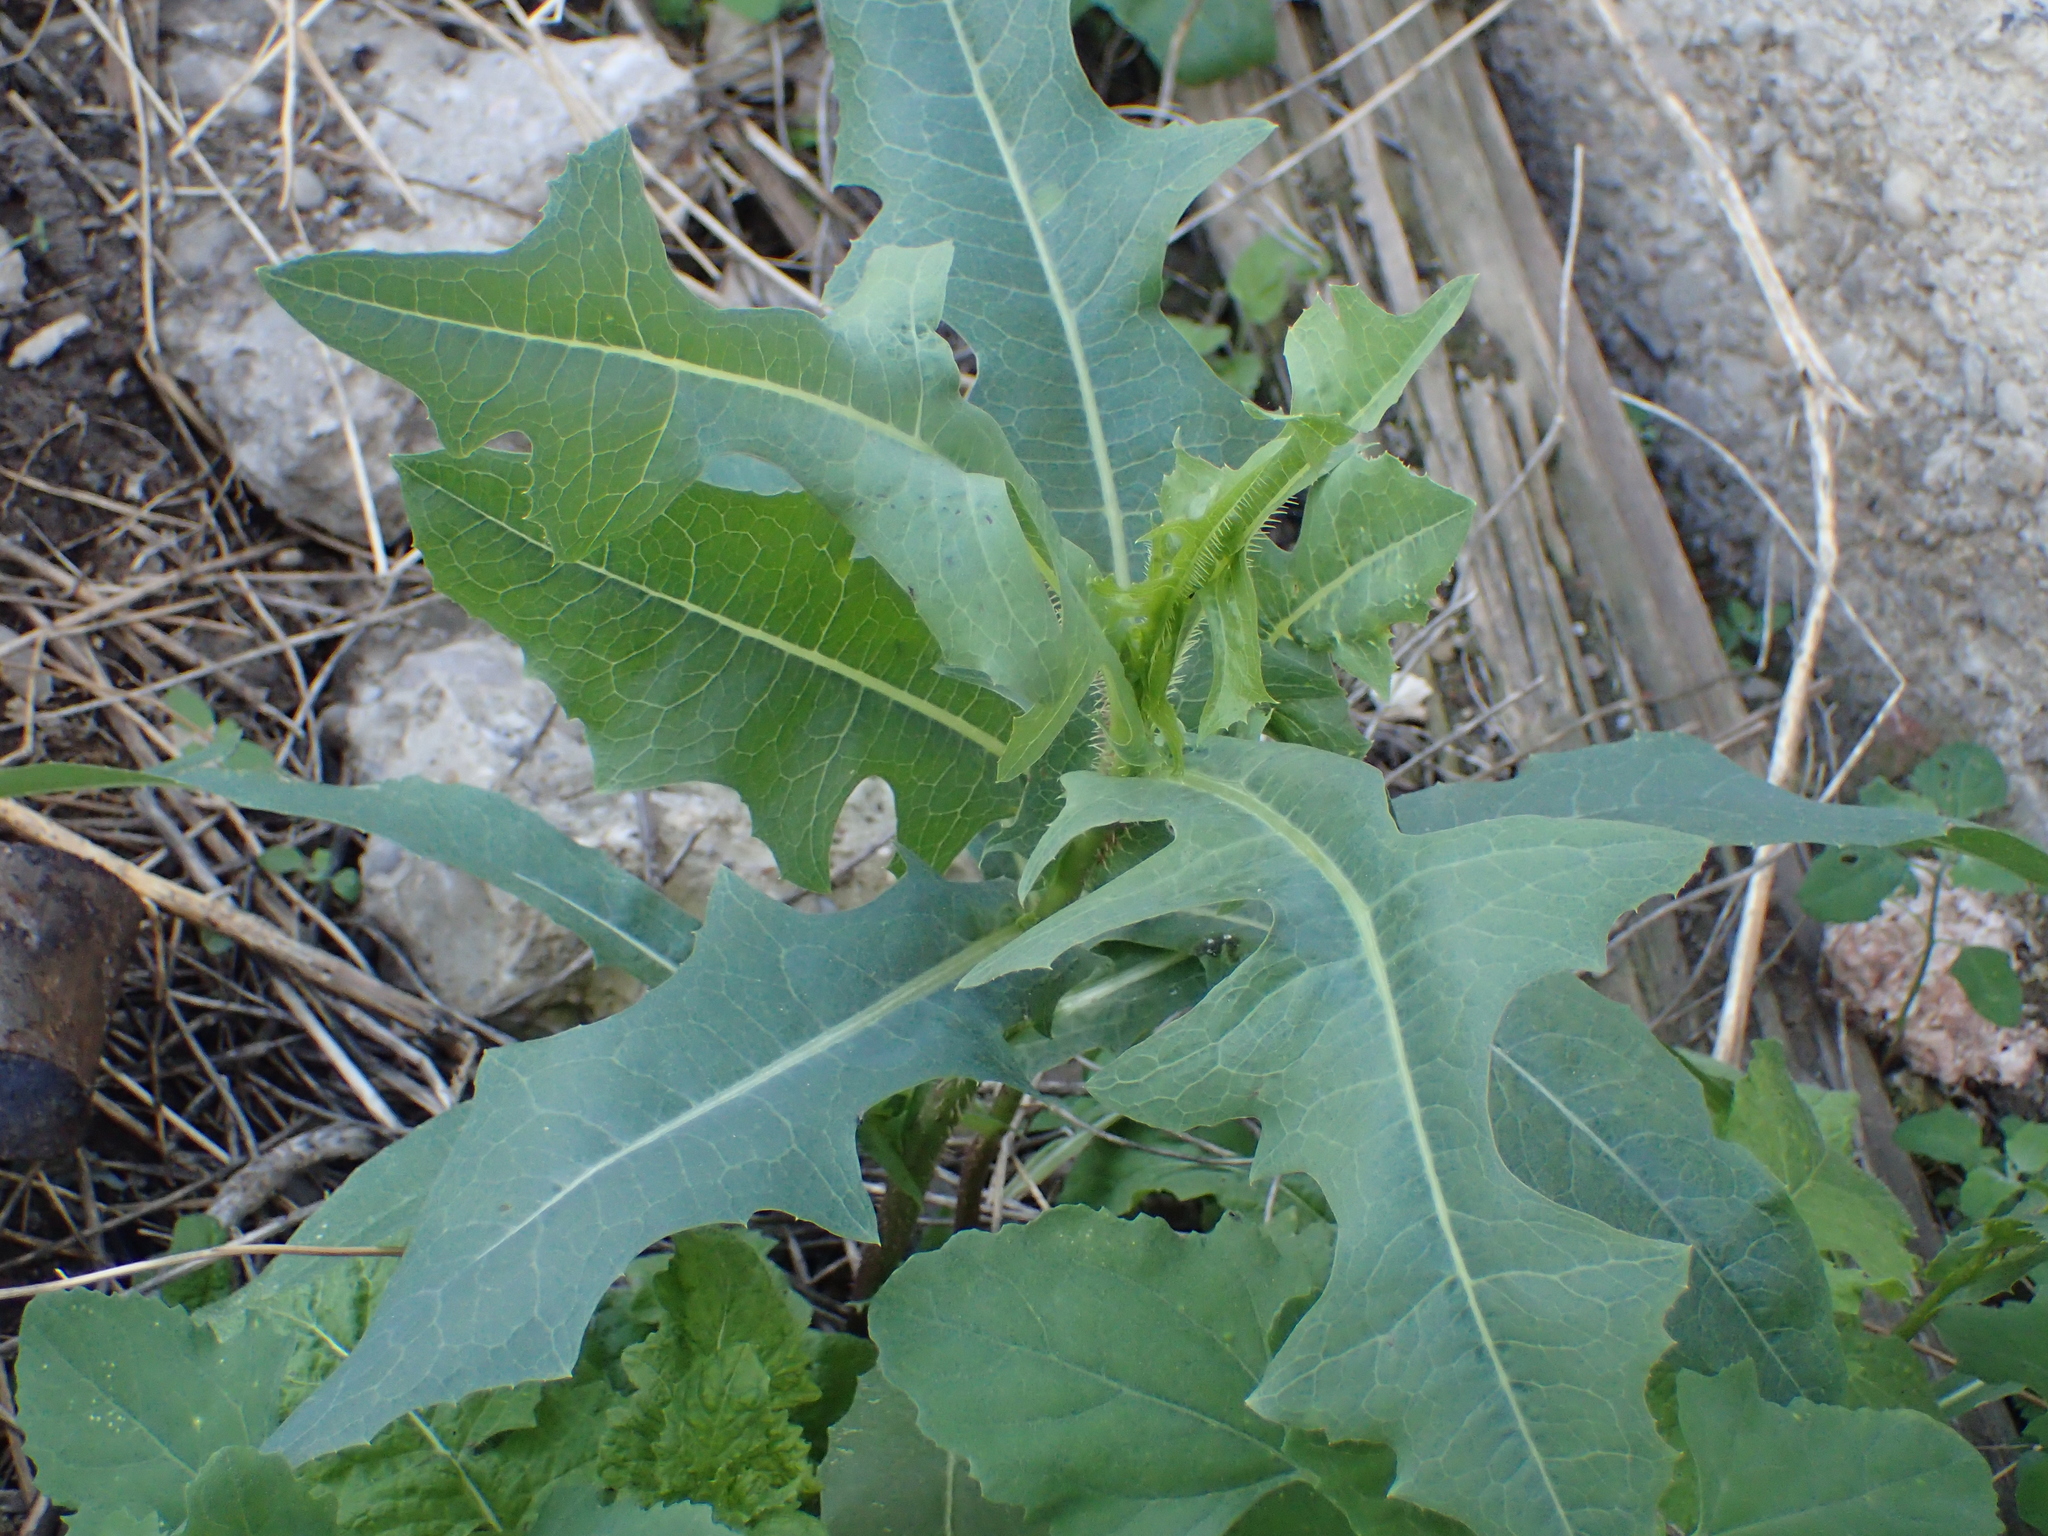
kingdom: Plantae
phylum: Tracheophyta
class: Magnoliopsida
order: Asterales
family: Asteraceae
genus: Lactuca
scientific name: Lactuca serriola
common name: Prickly lettuce
